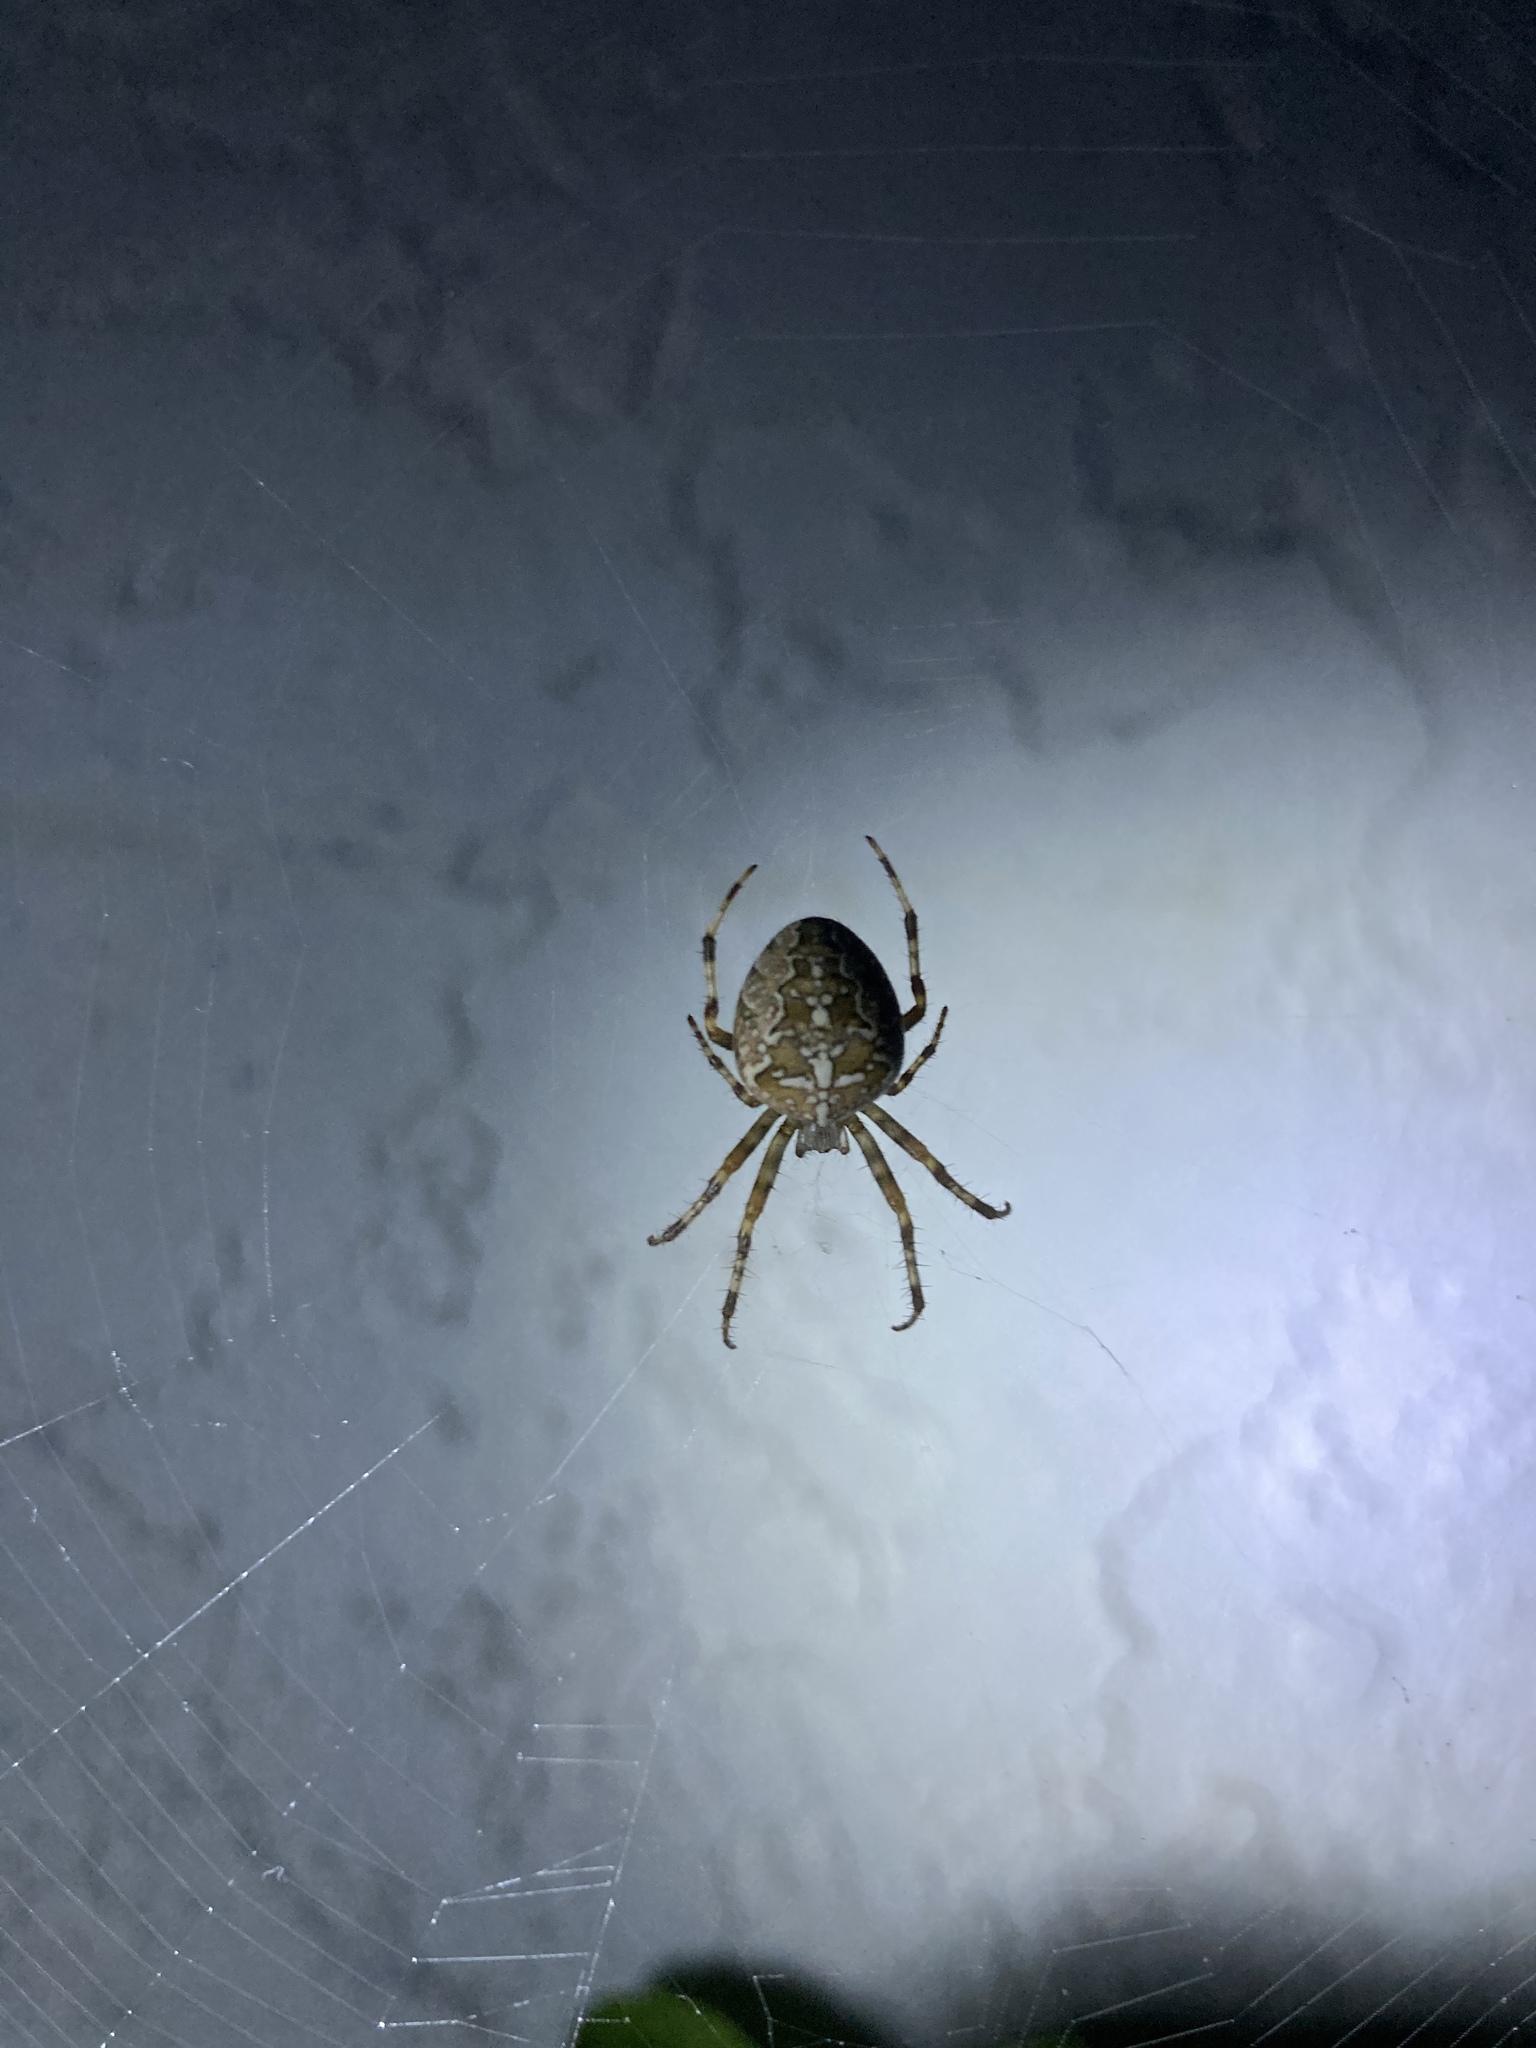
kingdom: Animalia
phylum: Arthropoda
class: Arachnida
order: Araneae
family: Araneidae
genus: Araneus
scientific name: Araneus diadematus
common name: Cross orbweaver
